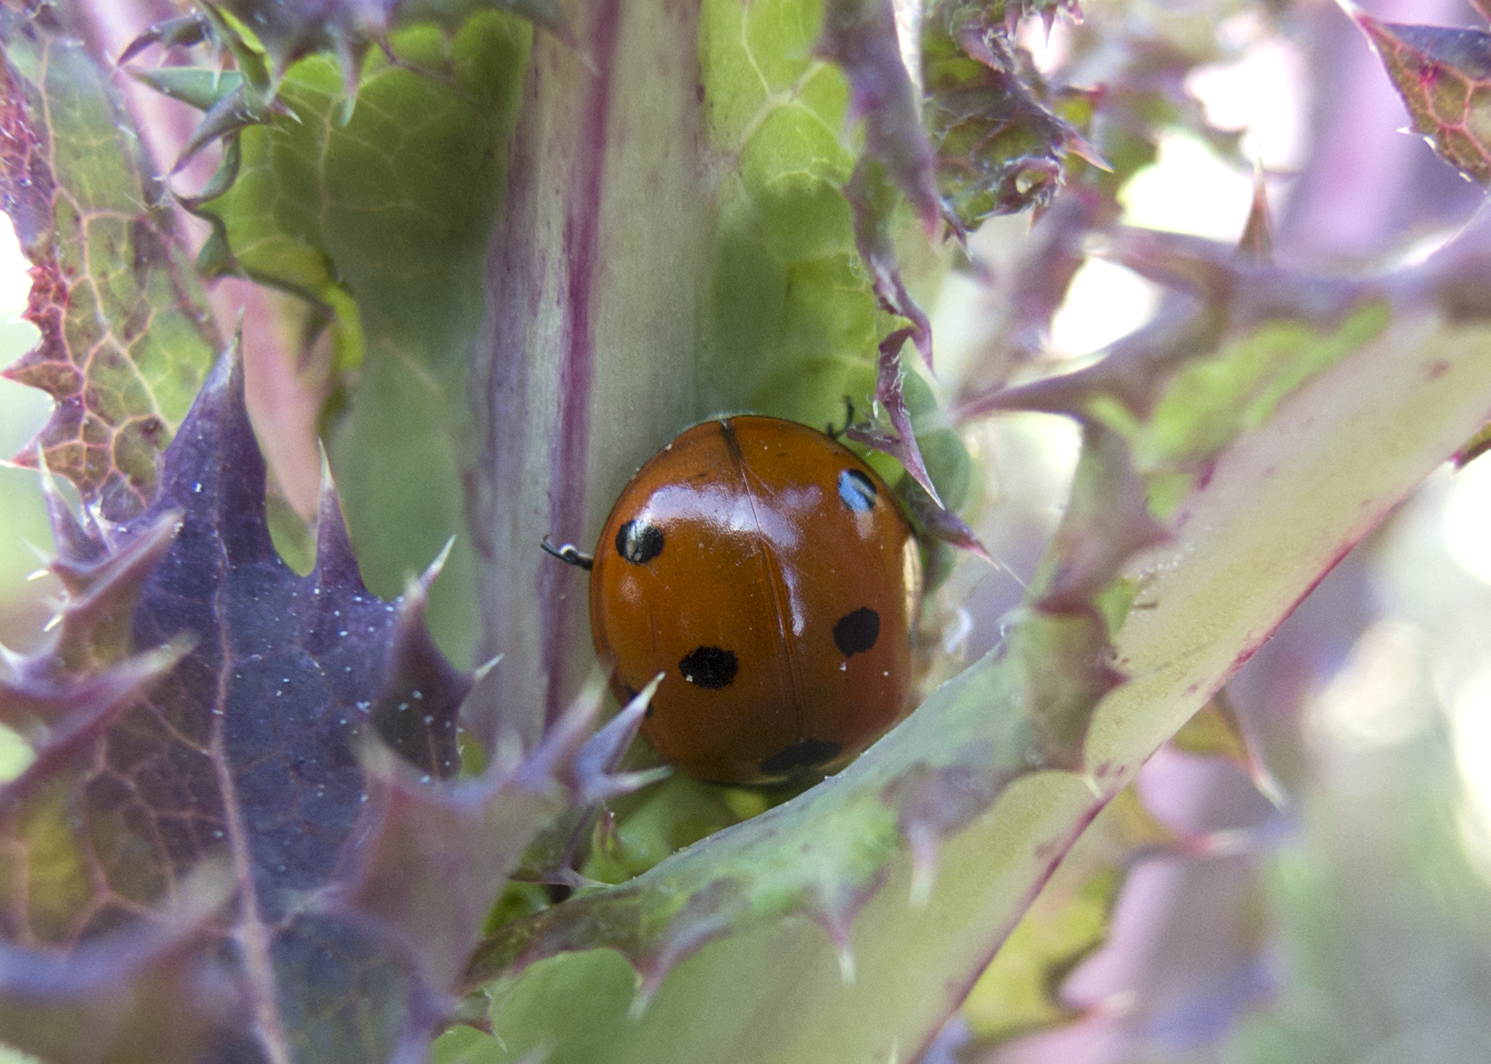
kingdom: Animalia
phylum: Arthropoda
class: Insecta
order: Coleoptera
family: Coccinellidae
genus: Coccinella
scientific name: Coccinella septempunctata
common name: Sevenspotted lady beetle
